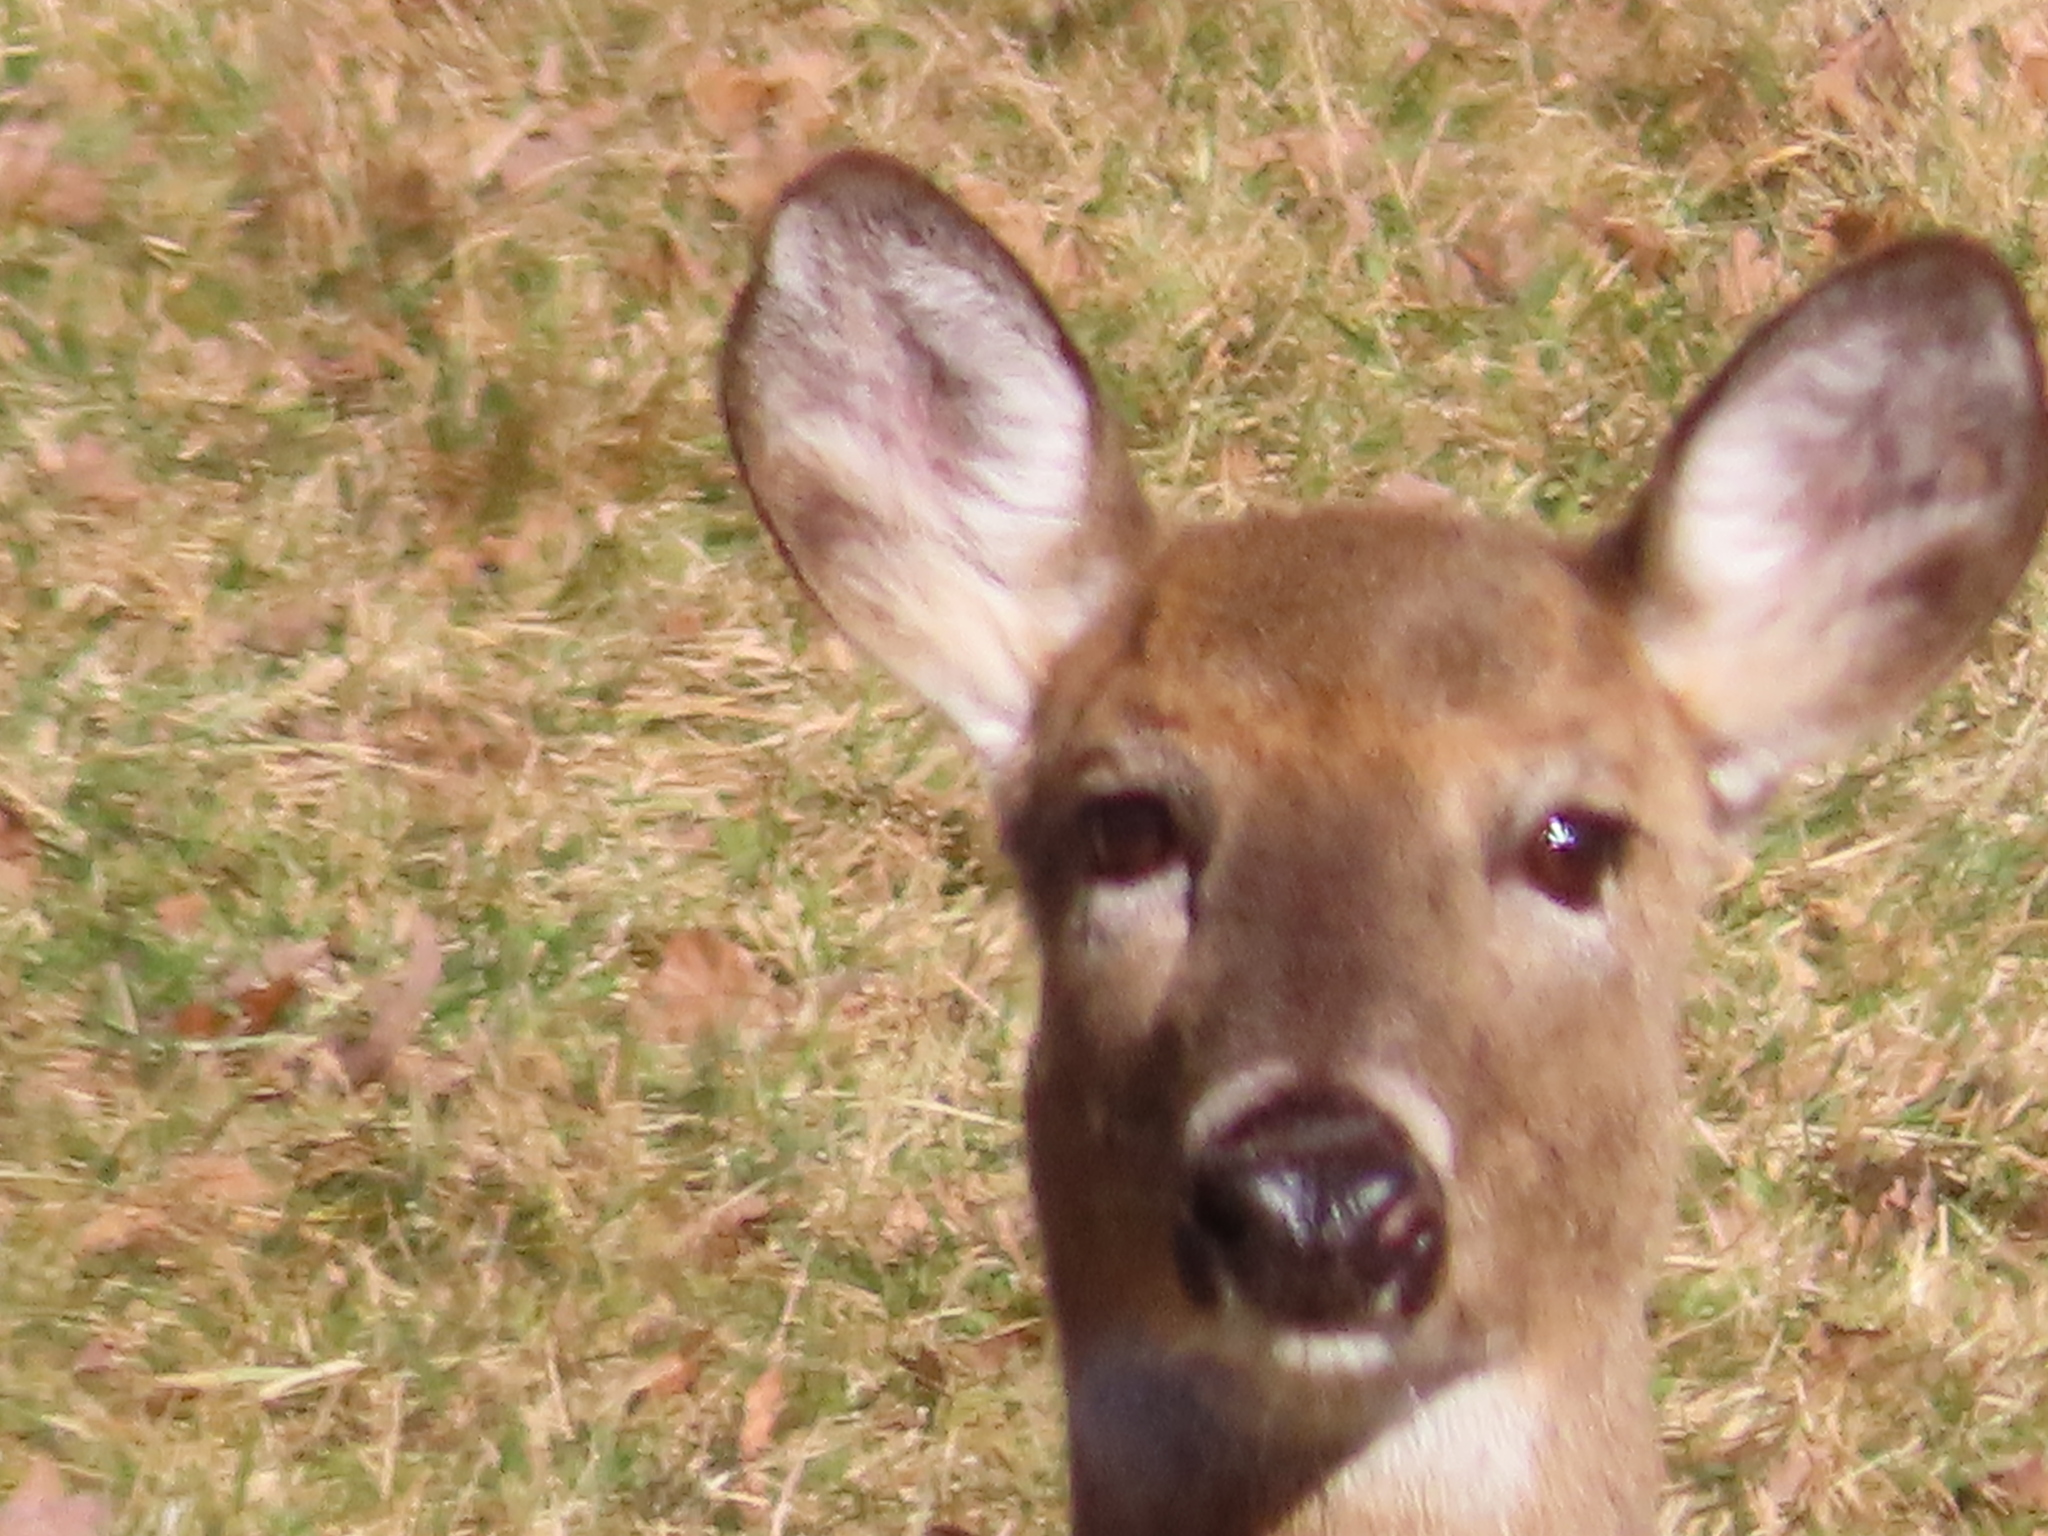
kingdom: Animalia
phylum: Chordata
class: Mammalia
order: Artiodactyla
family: Cervidae
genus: Odocoileus
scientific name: Odocoileus virginianus
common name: White-tailed deer
